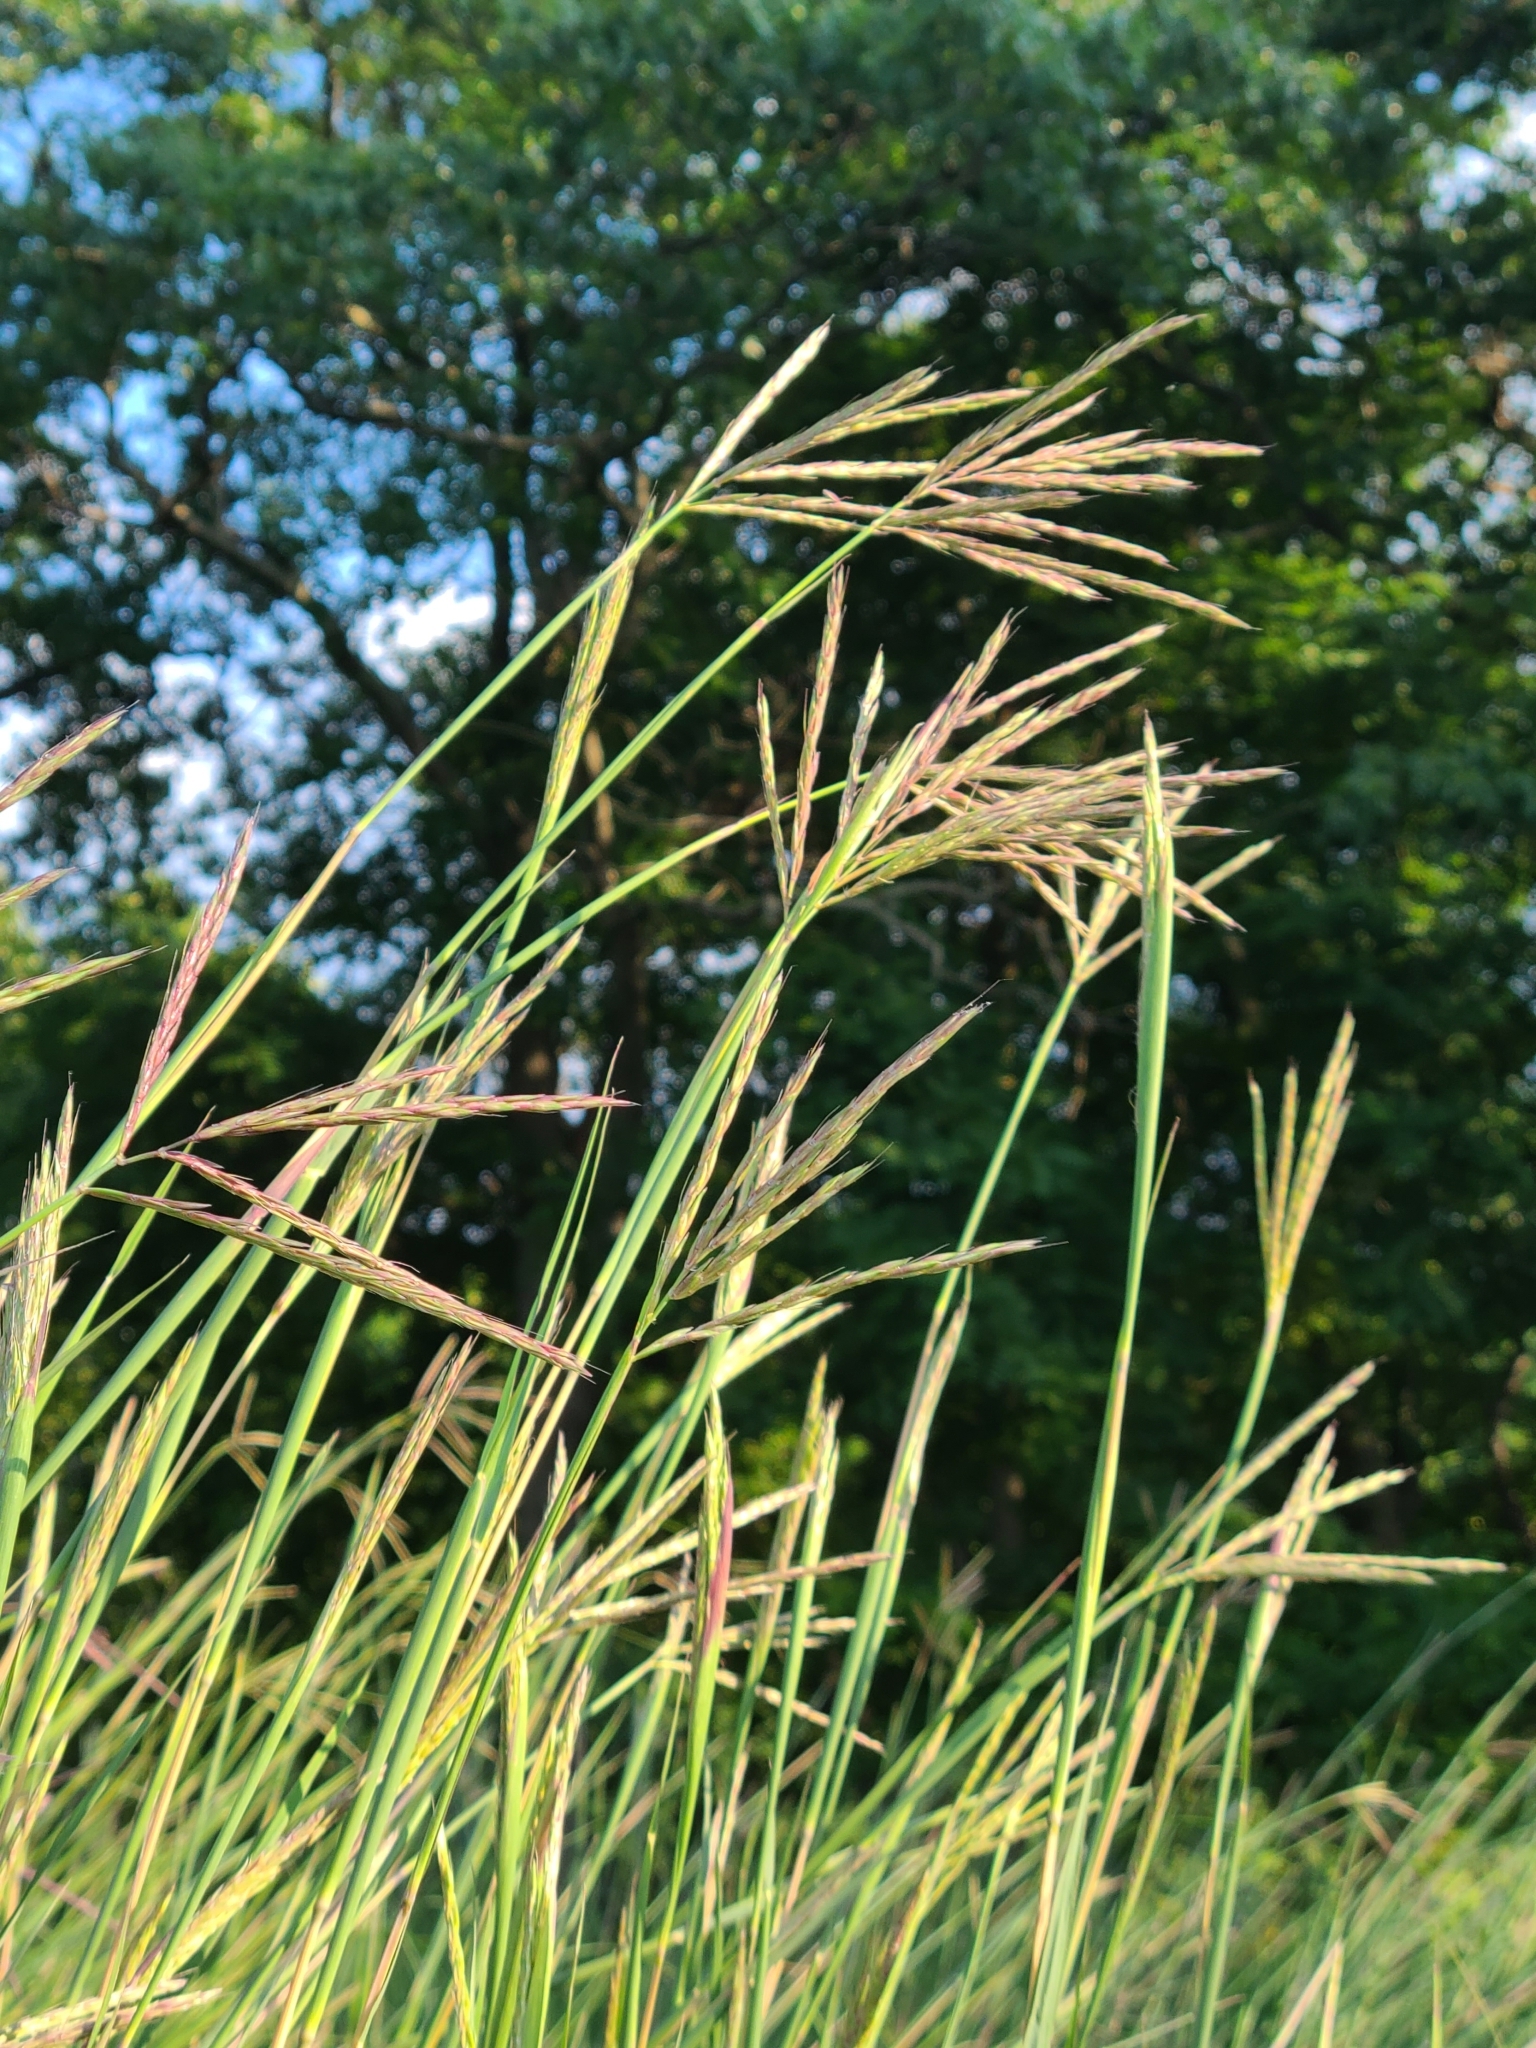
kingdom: Plantae
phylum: Tracheophyta
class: Liliopsida
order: Poales
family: Poaceae
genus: Andropogon
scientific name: Andropogon gerardi
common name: Big bluestem
